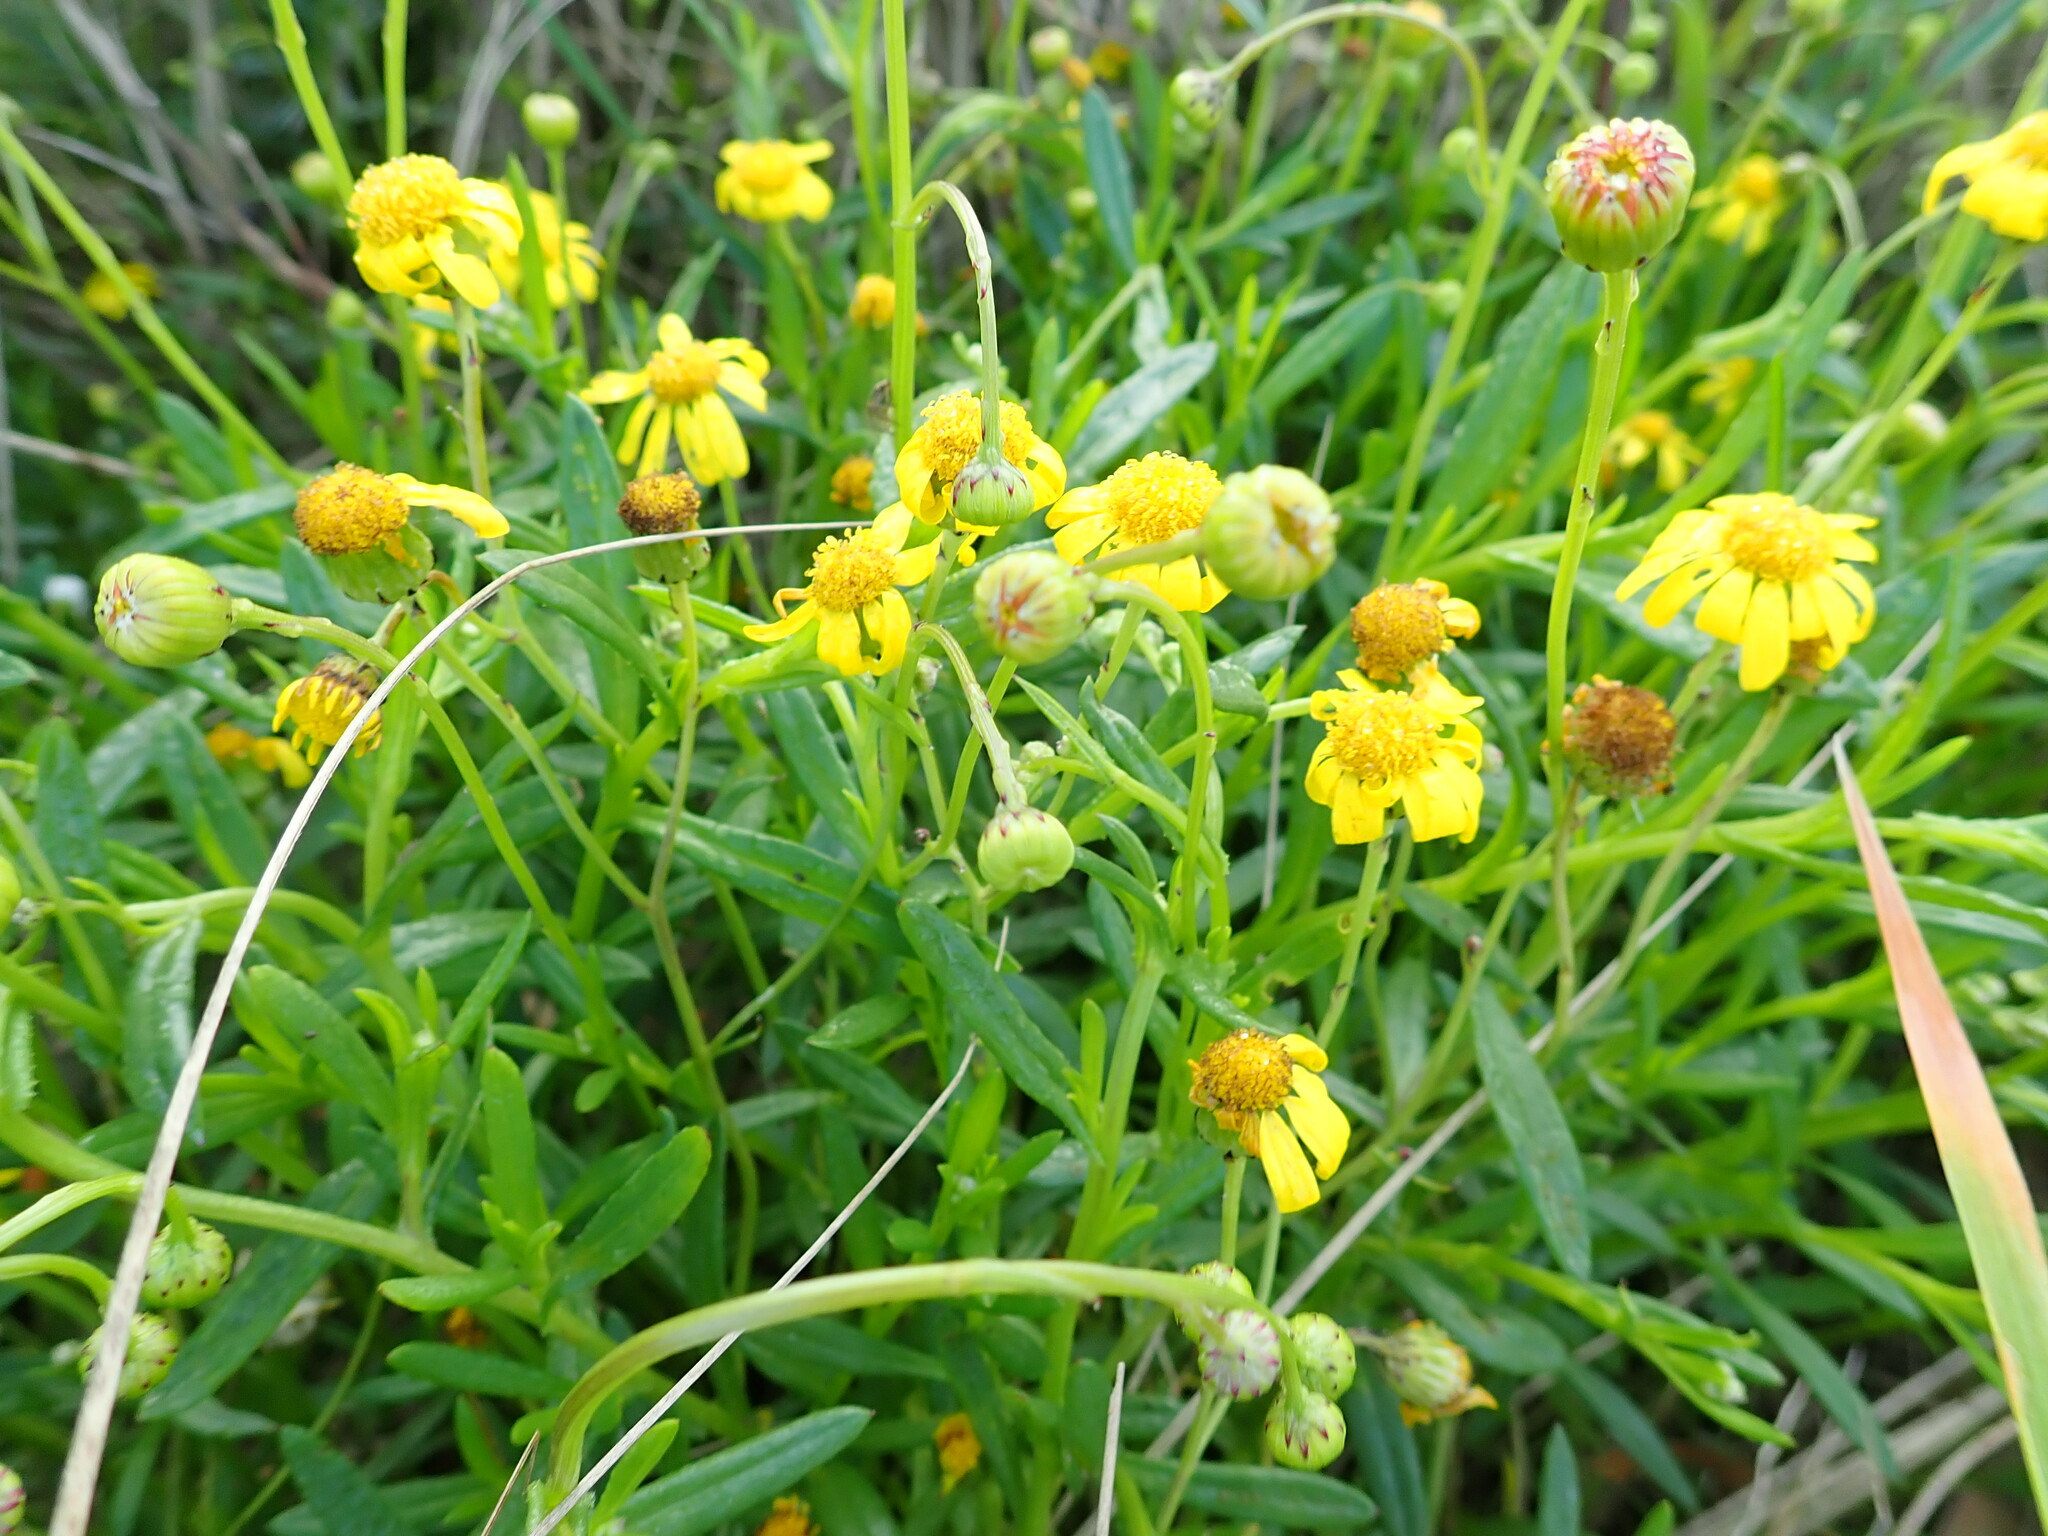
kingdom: Plantae
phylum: Tracheophyta
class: Magnoliopsida
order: Asterales
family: Asteraceae
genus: Senecio
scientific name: Senecio skirrhodon
